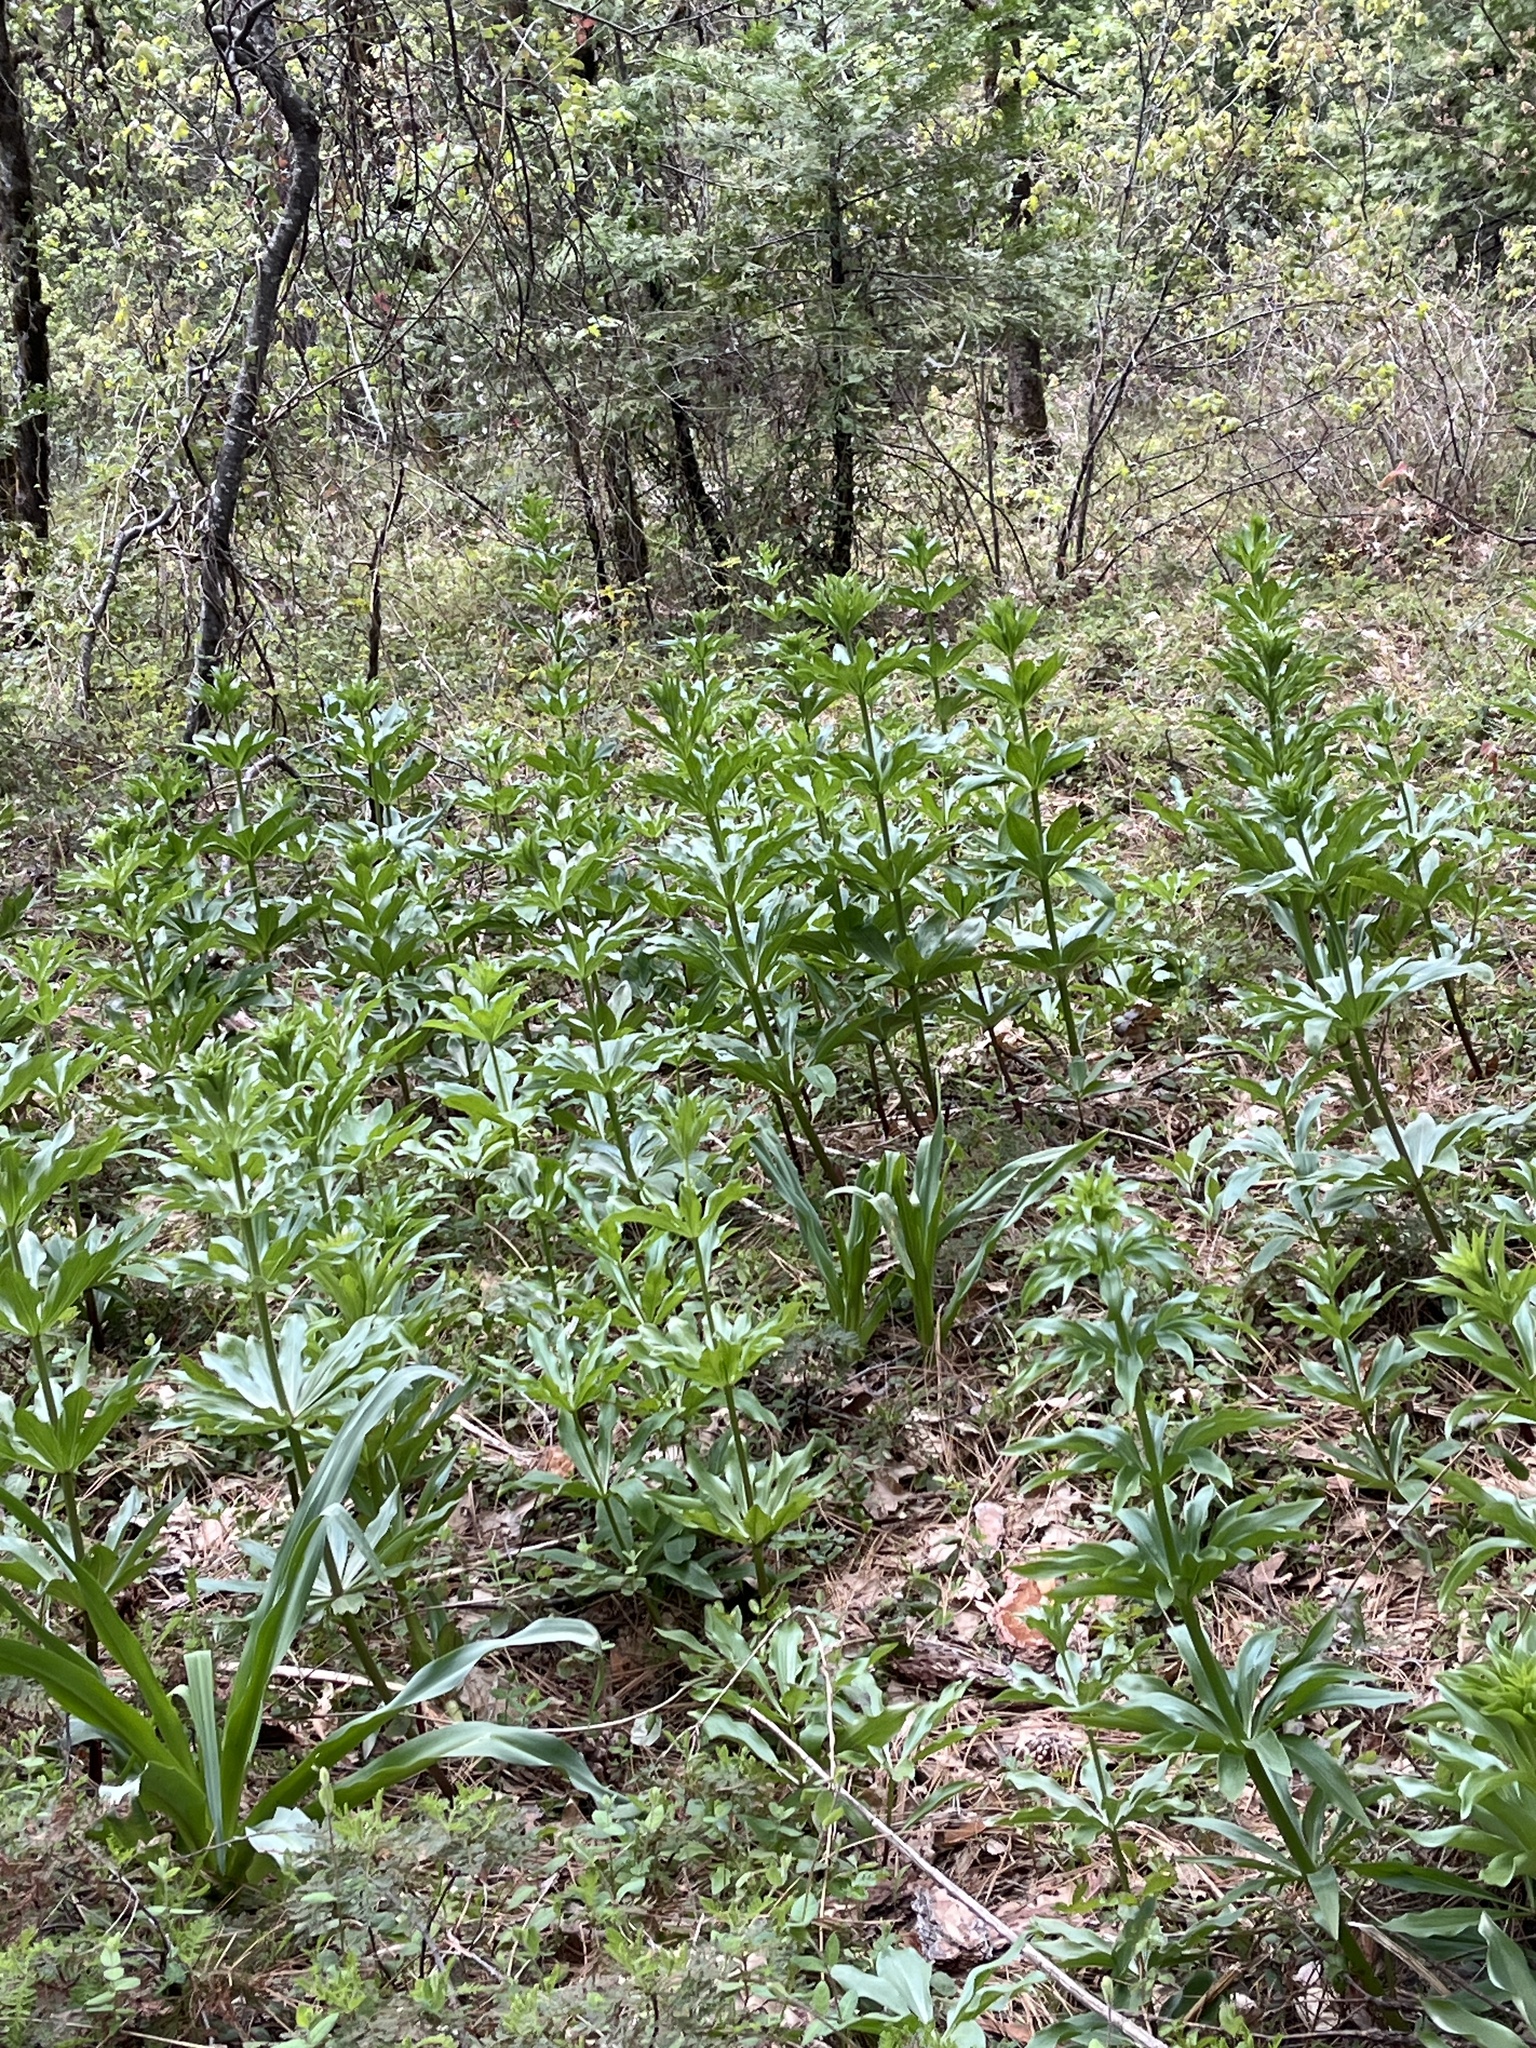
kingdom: Plantae
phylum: Tracheophyta
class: Liliopsida
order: Liliales
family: Liliaceae
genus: Lilium
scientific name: Lilium humboldtii
